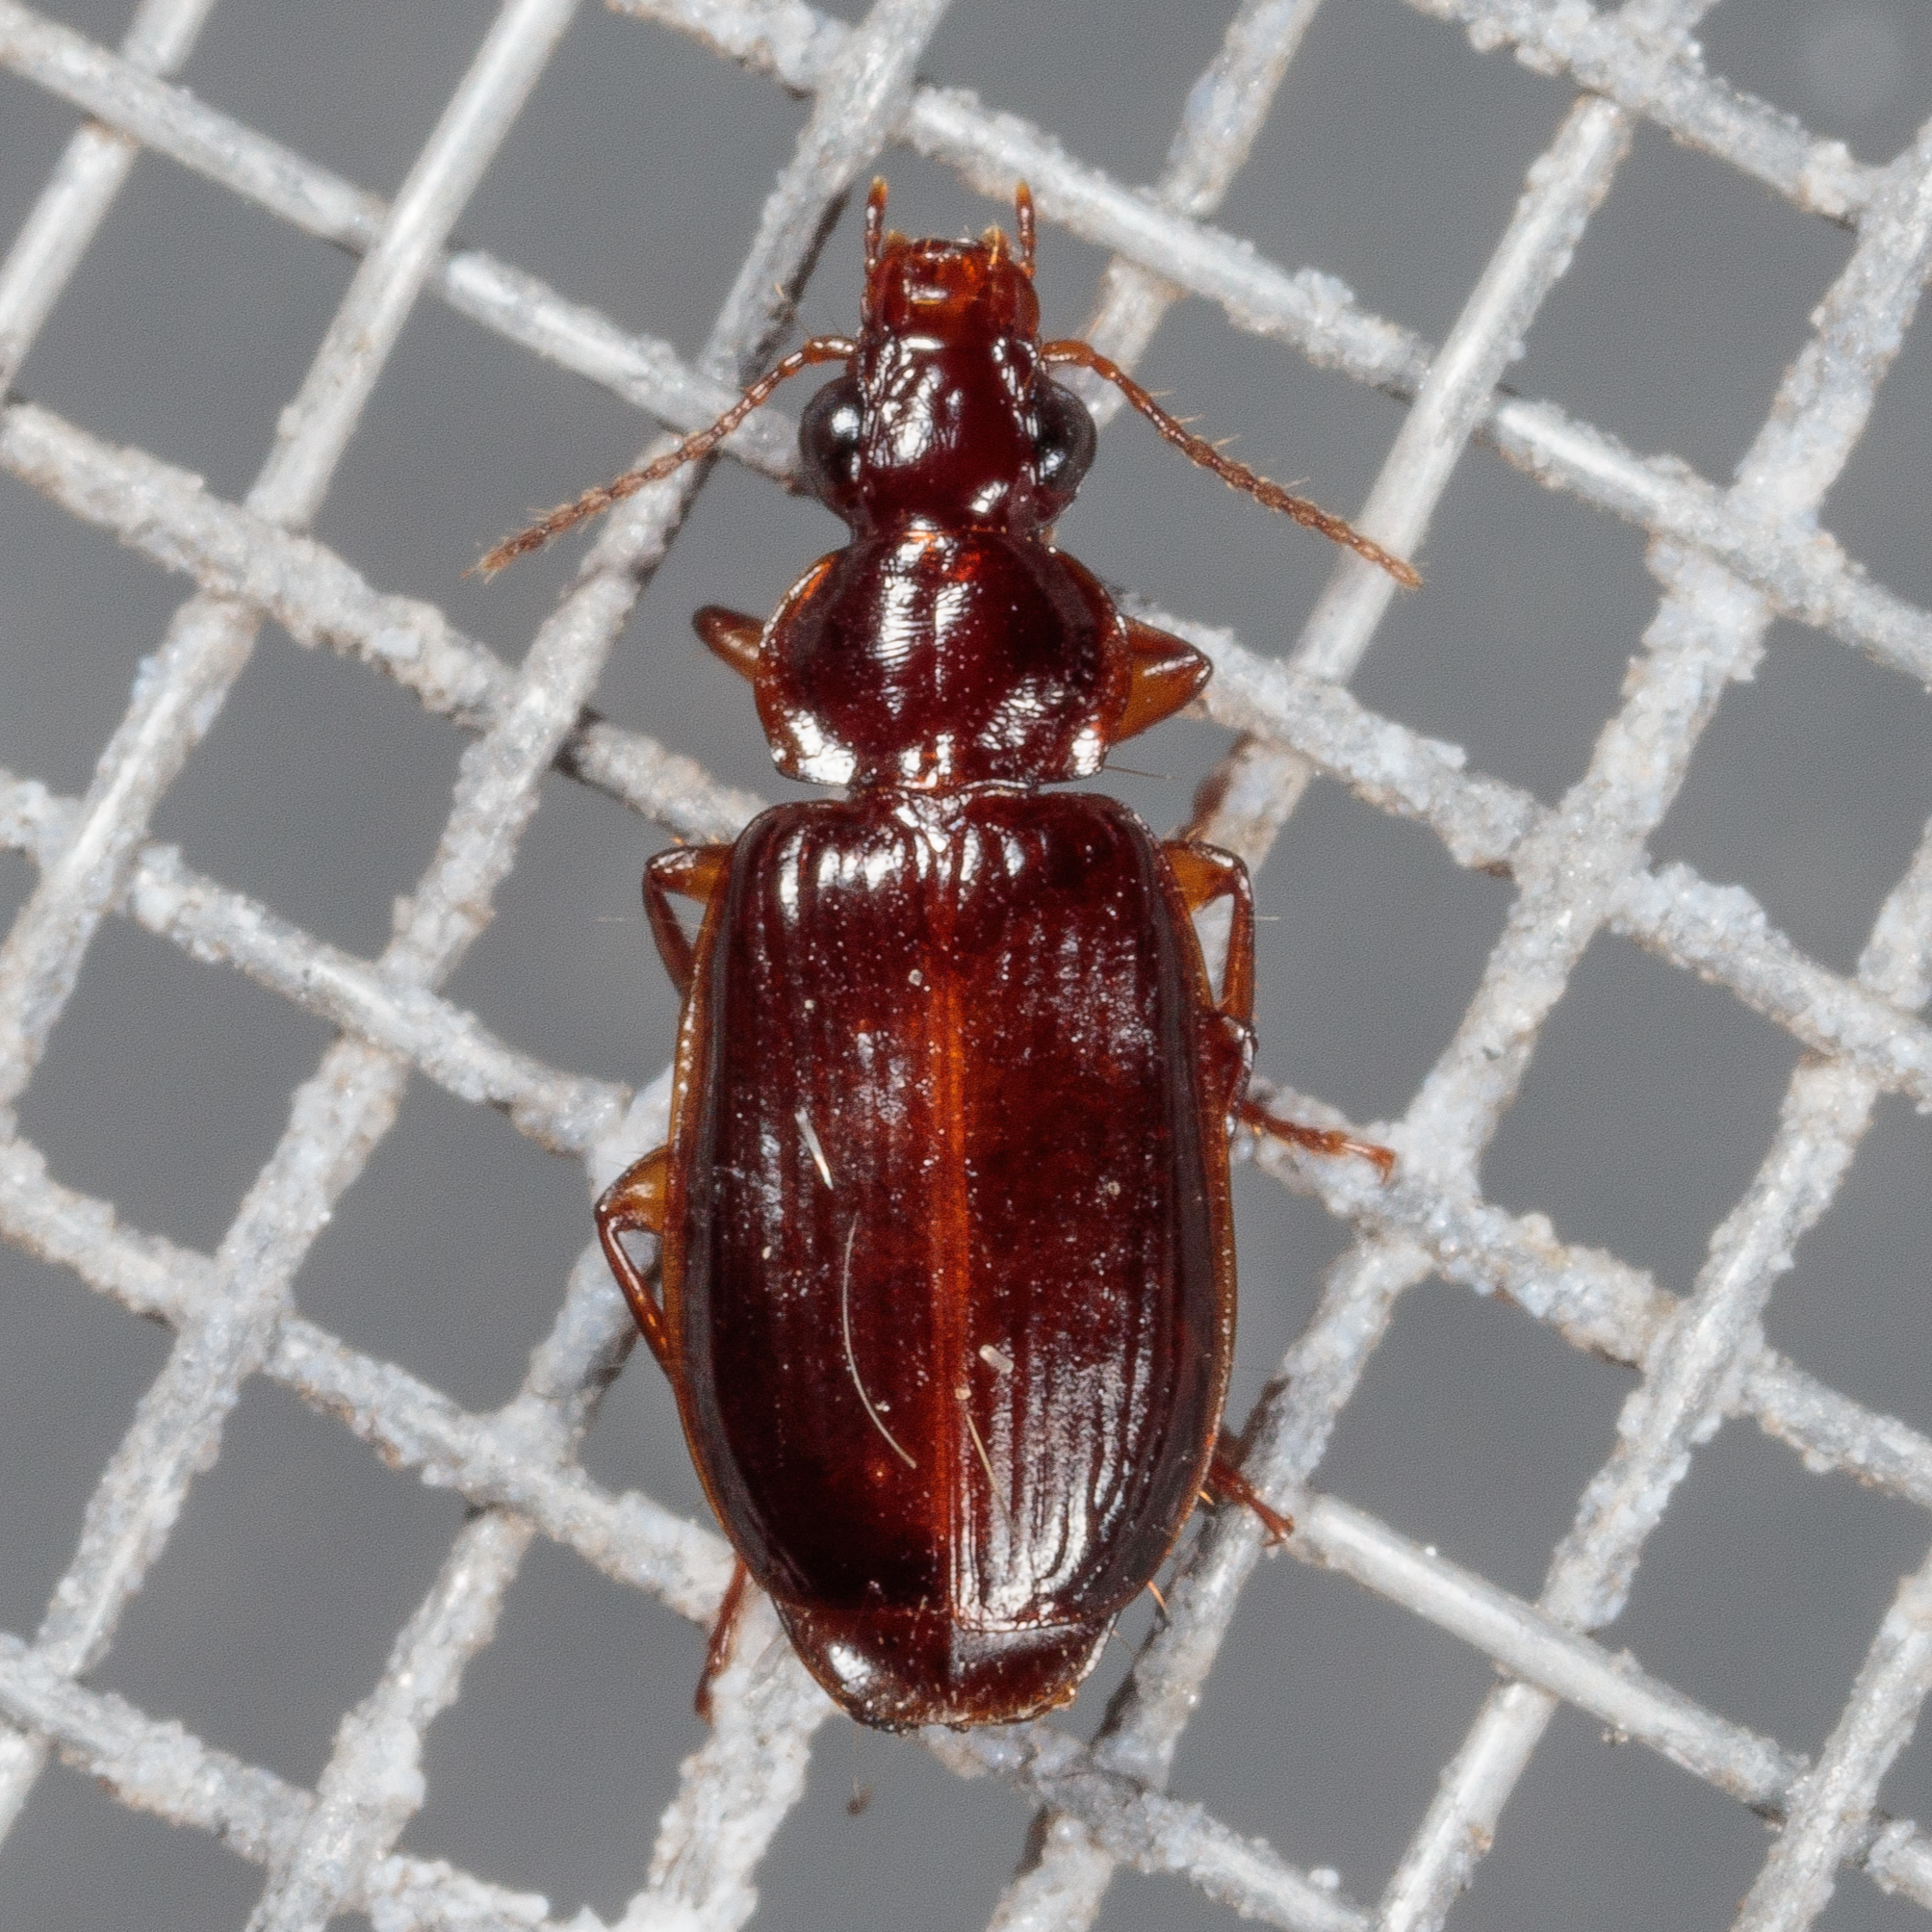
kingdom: Animalia
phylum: Arthropoda
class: Insecta
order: Coleoptera
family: Carabidae
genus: Plochionus
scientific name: Plochionus timidus
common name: Timid harp ground beetle
